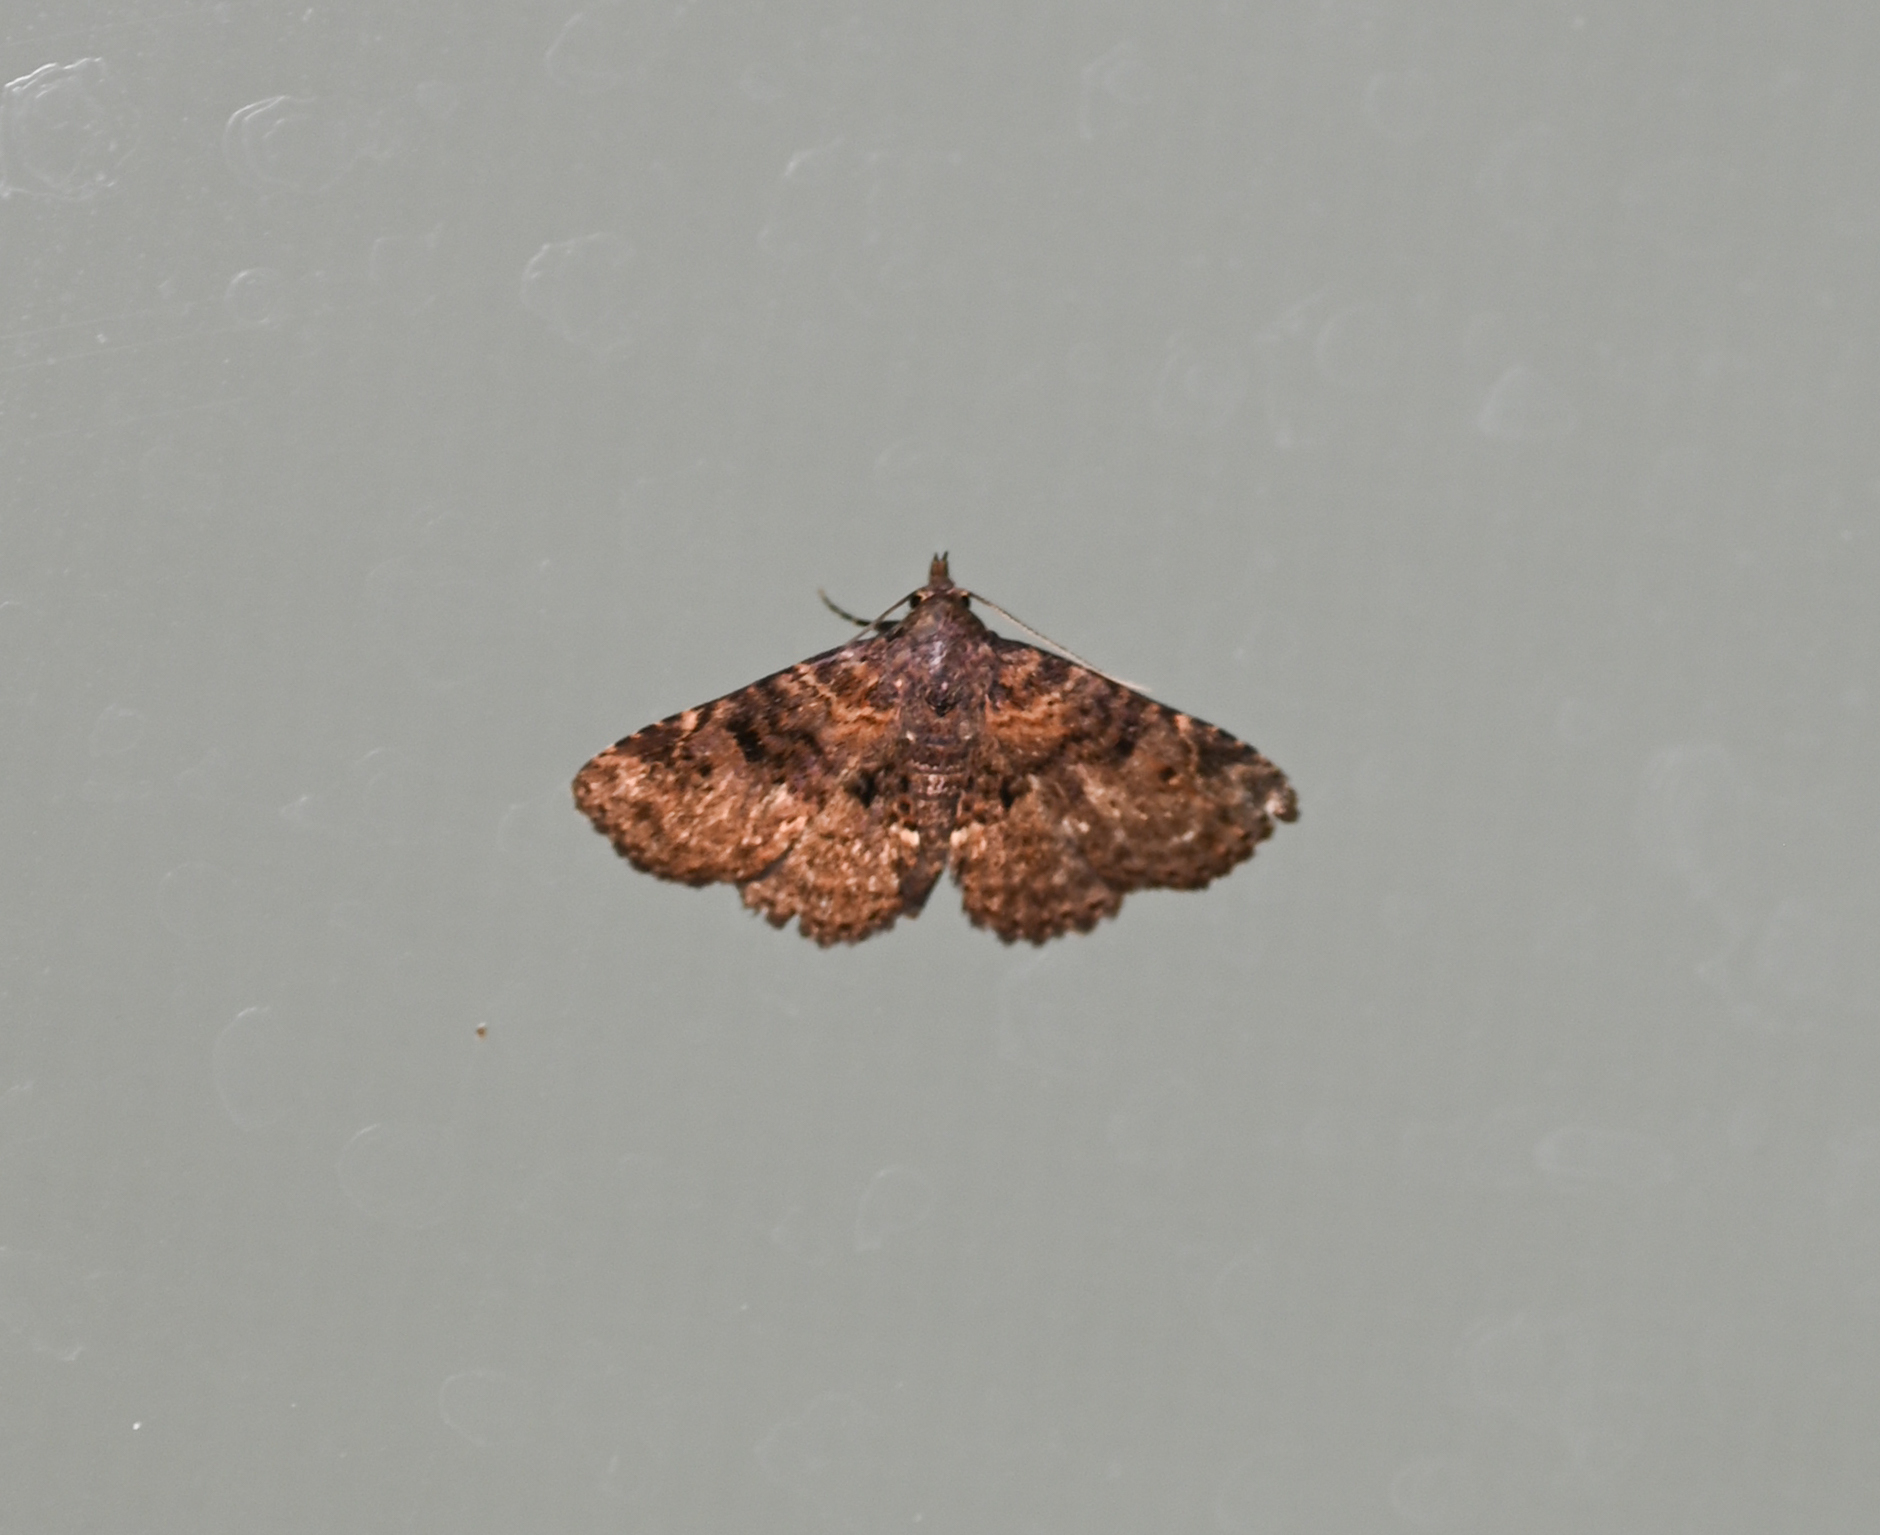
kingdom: Animalia
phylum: Arthropoda
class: Insecta
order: Lepidoptera
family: Erebidae
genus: Metalectra
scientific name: Metalectra quadrisignata
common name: Four-spotted fungus moth
